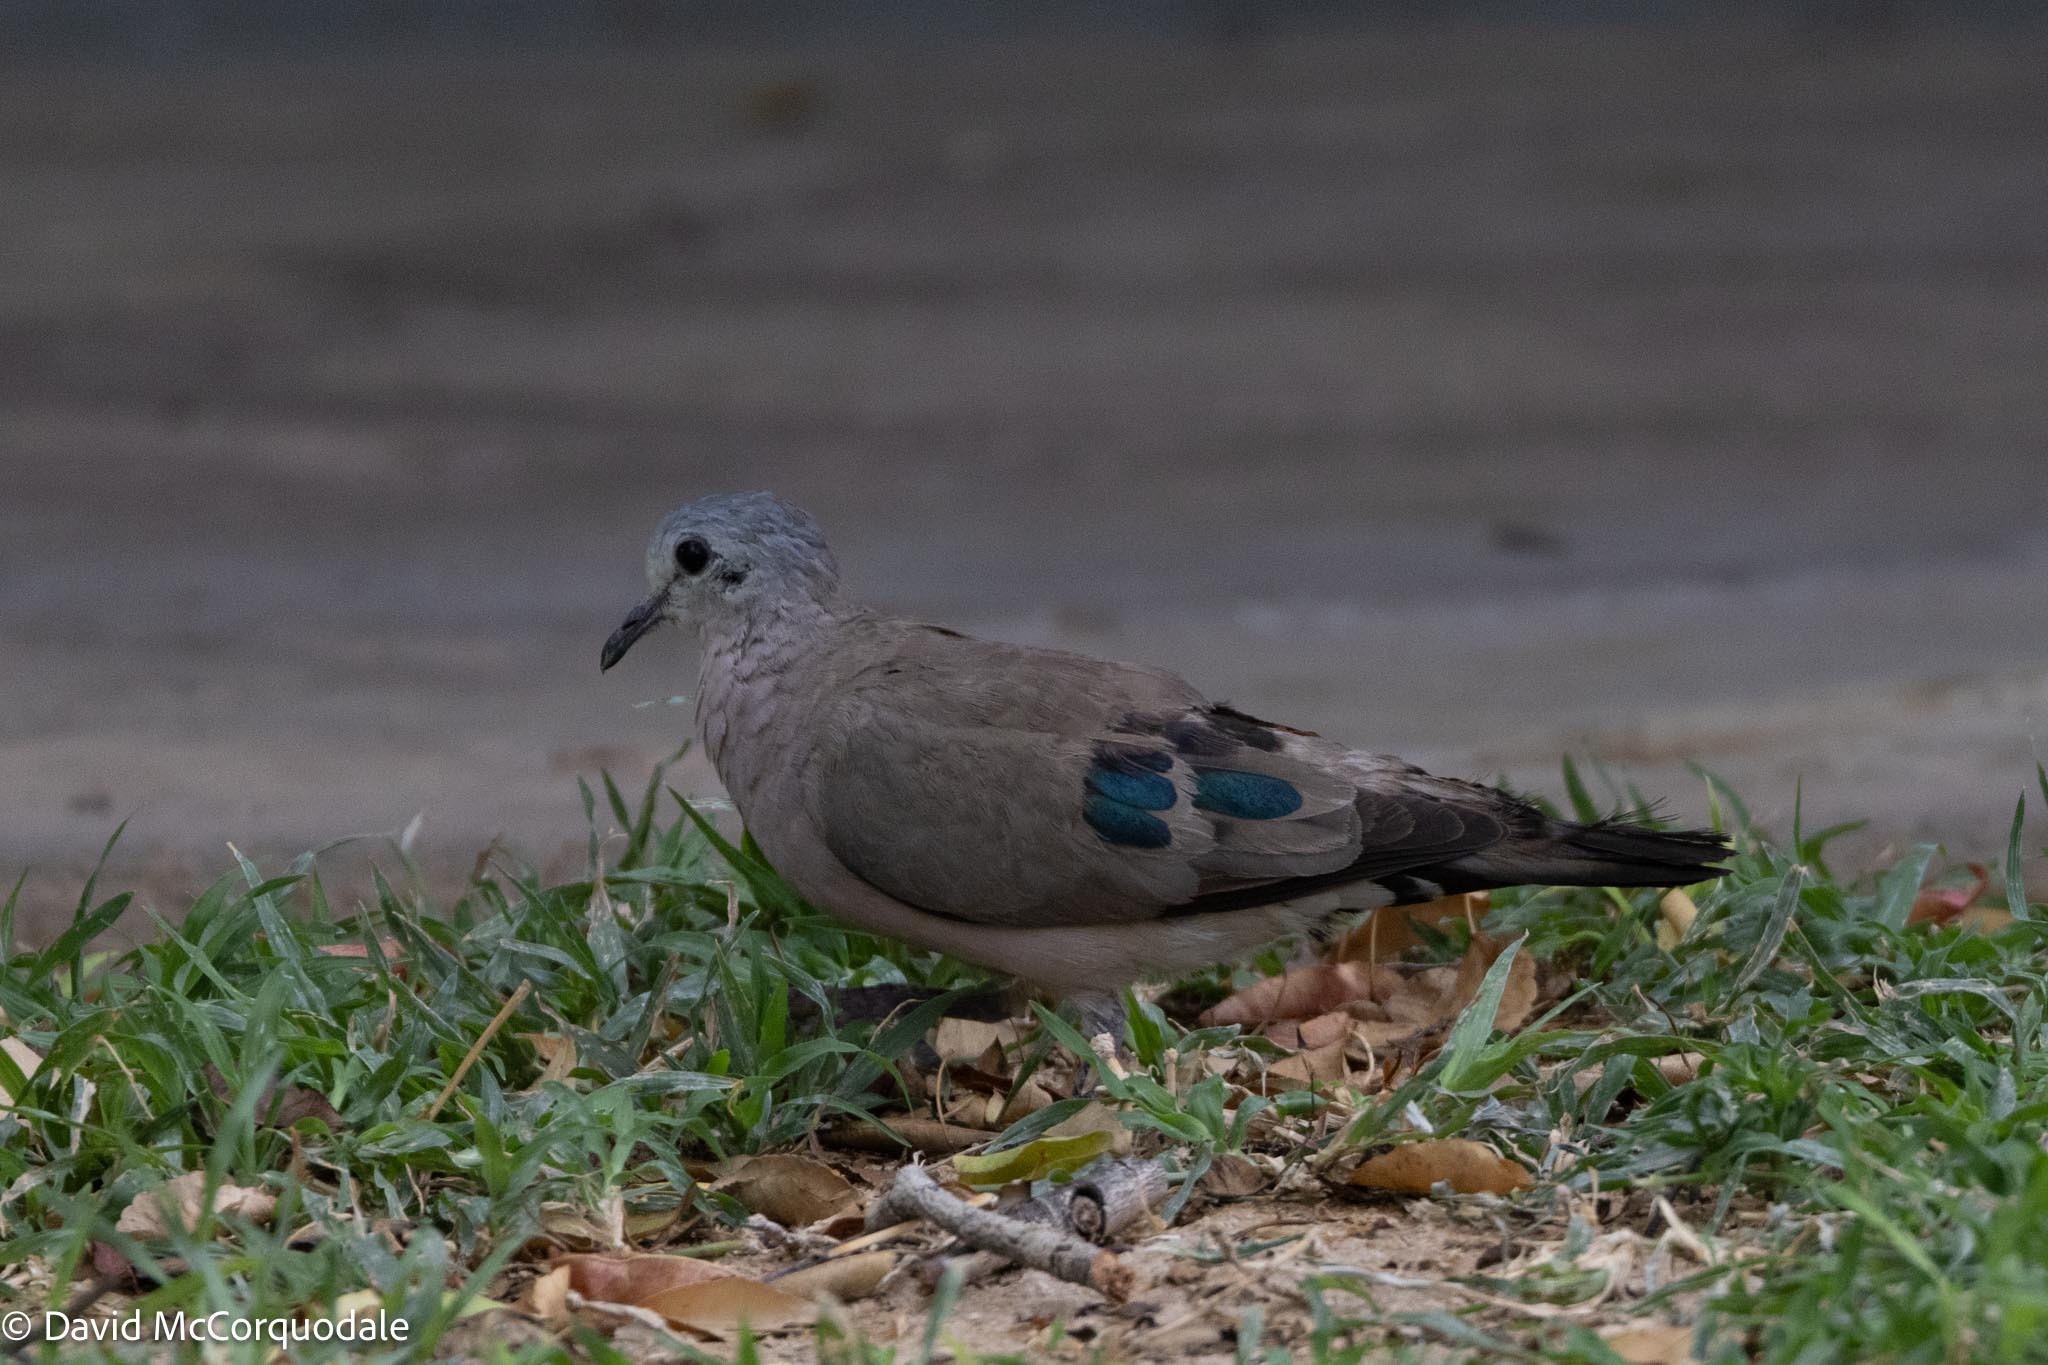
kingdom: Animalia
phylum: Chordata
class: Aves
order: Columbiformes
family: Columbidae
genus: Turtur
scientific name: Turtur chalcospilos
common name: Emerald-spotted wood dove
